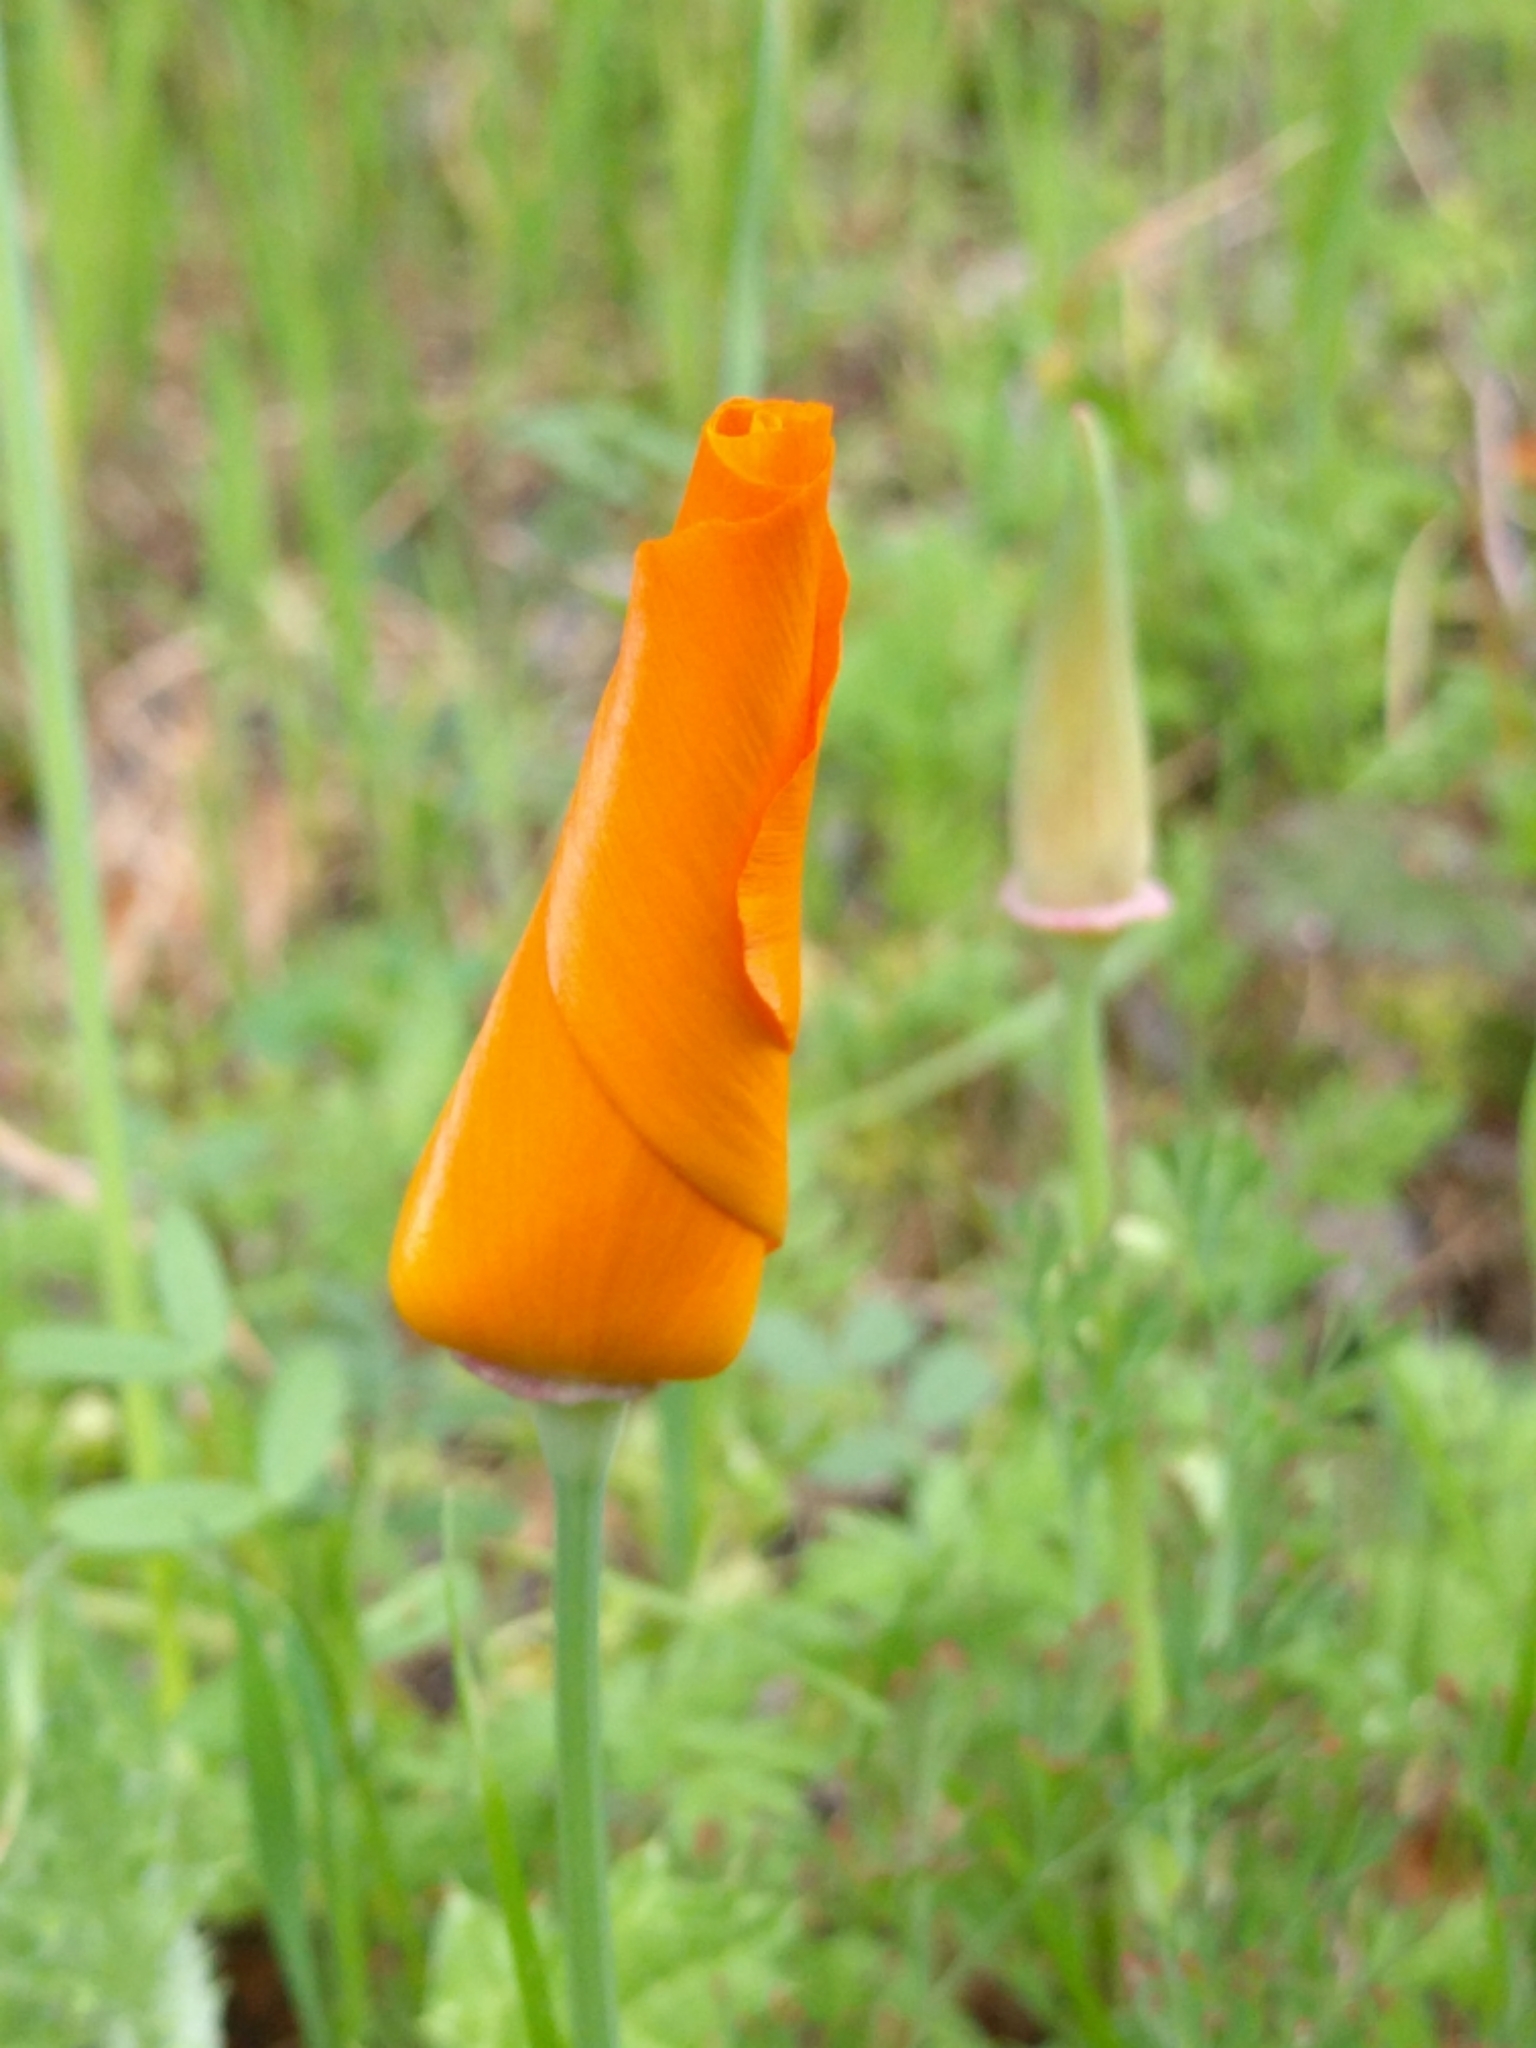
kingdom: Plantae
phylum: Tracheophyta
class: Magnoliopsida
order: Ranunculales
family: Papaveraceae
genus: Eschscholzia
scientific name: Eschscholzia californica
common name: California poppy
